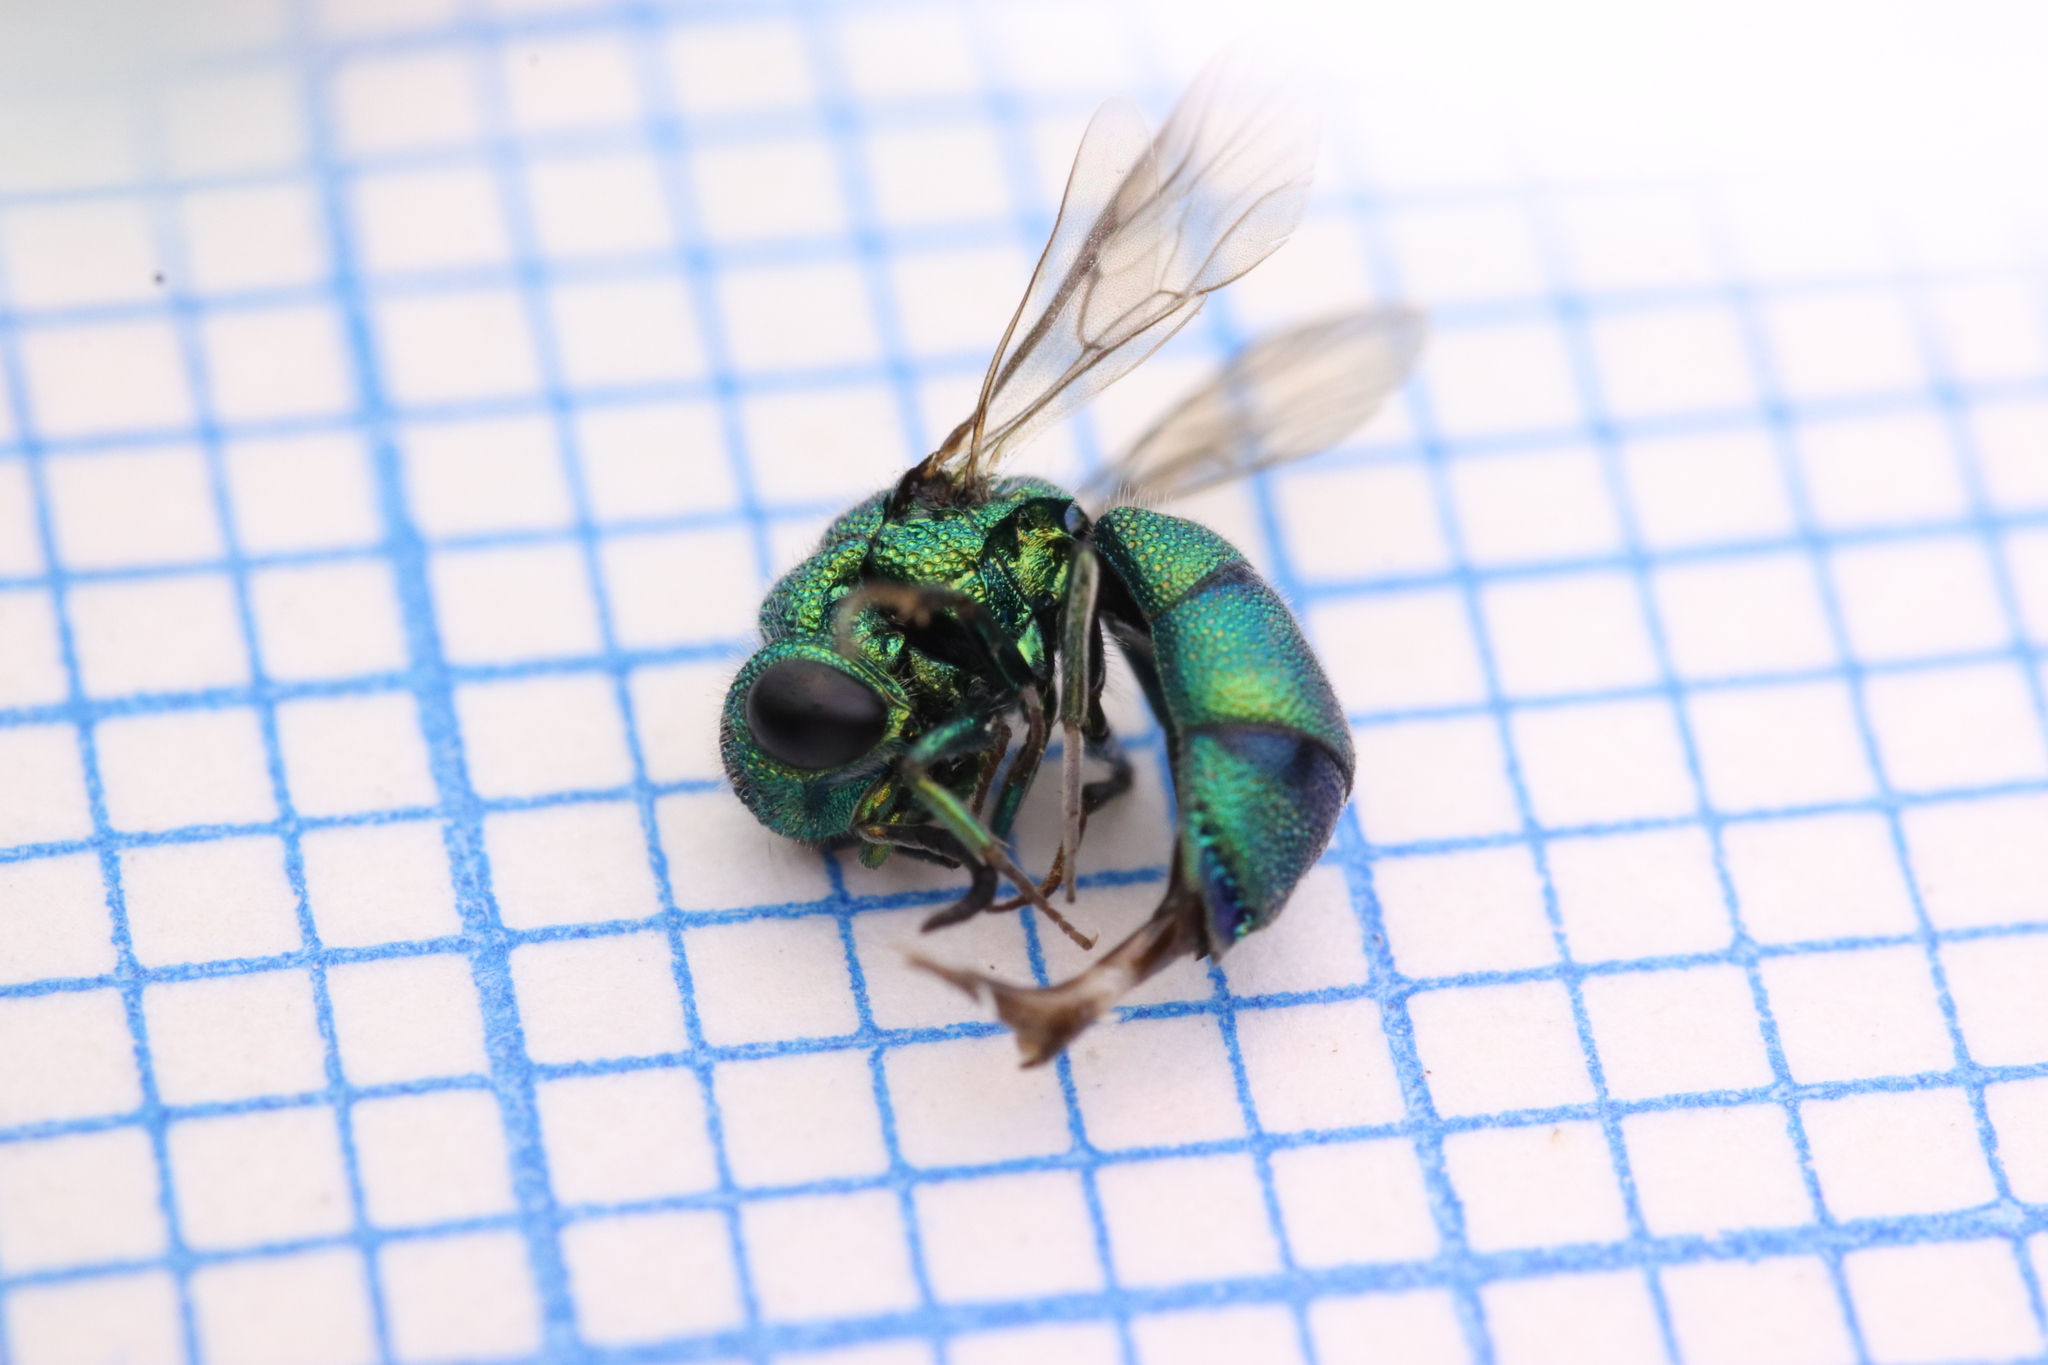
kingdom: Animalia
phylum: Arthropoda
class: Insecta
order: Hymenoptera
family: Chrysididae
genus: Chrysidea
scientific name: Chrysidea
